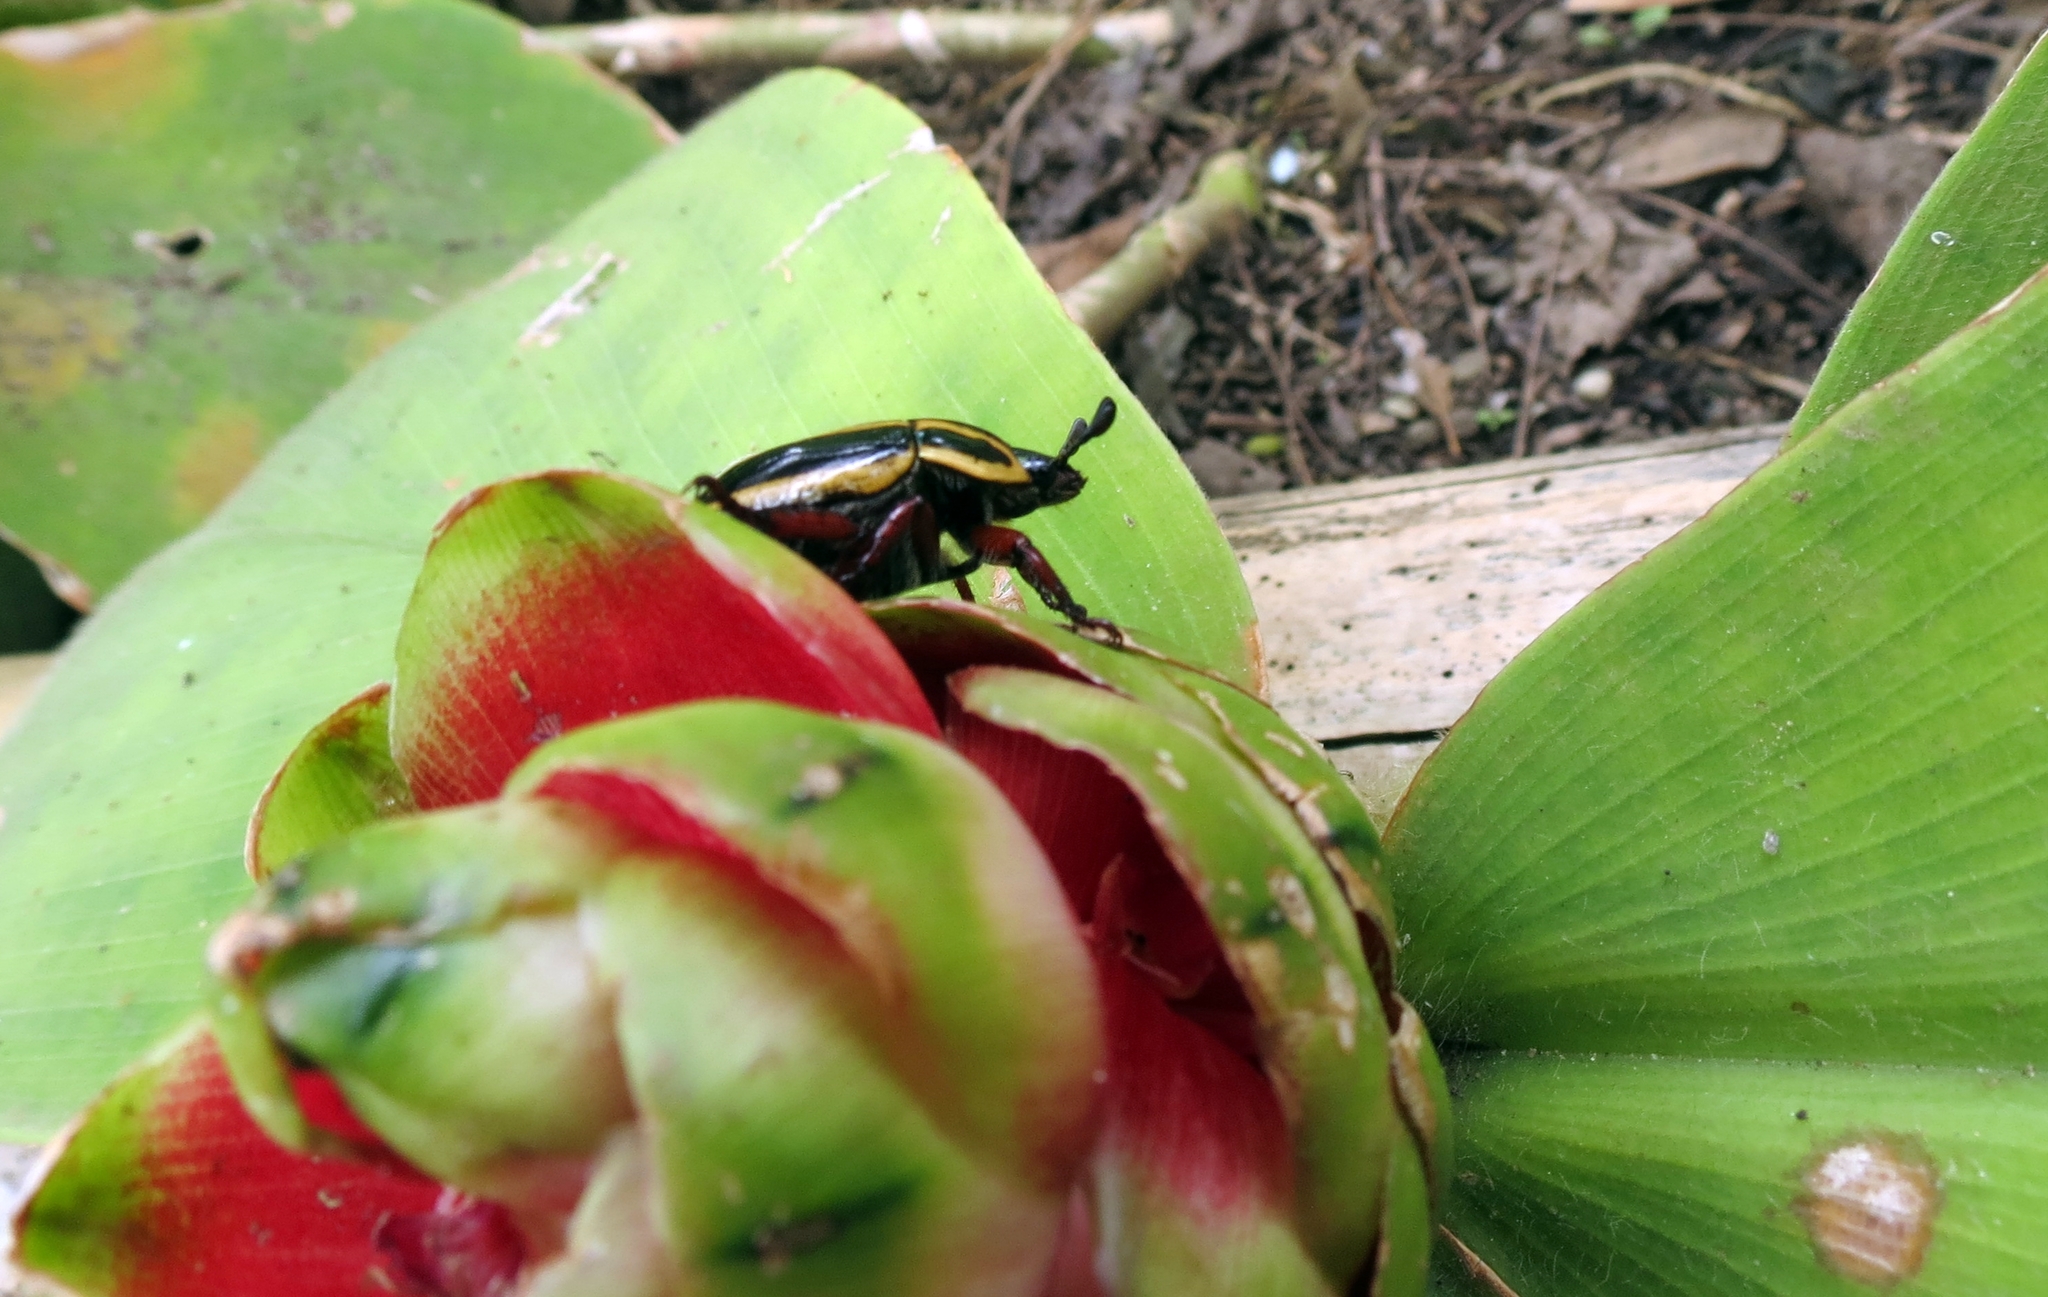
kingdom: Animalia
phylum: Arthropoda
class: Insecta
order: Coleoptera
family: Scarabaeidae
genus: Macraspis
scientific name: Macraspis jamesi
